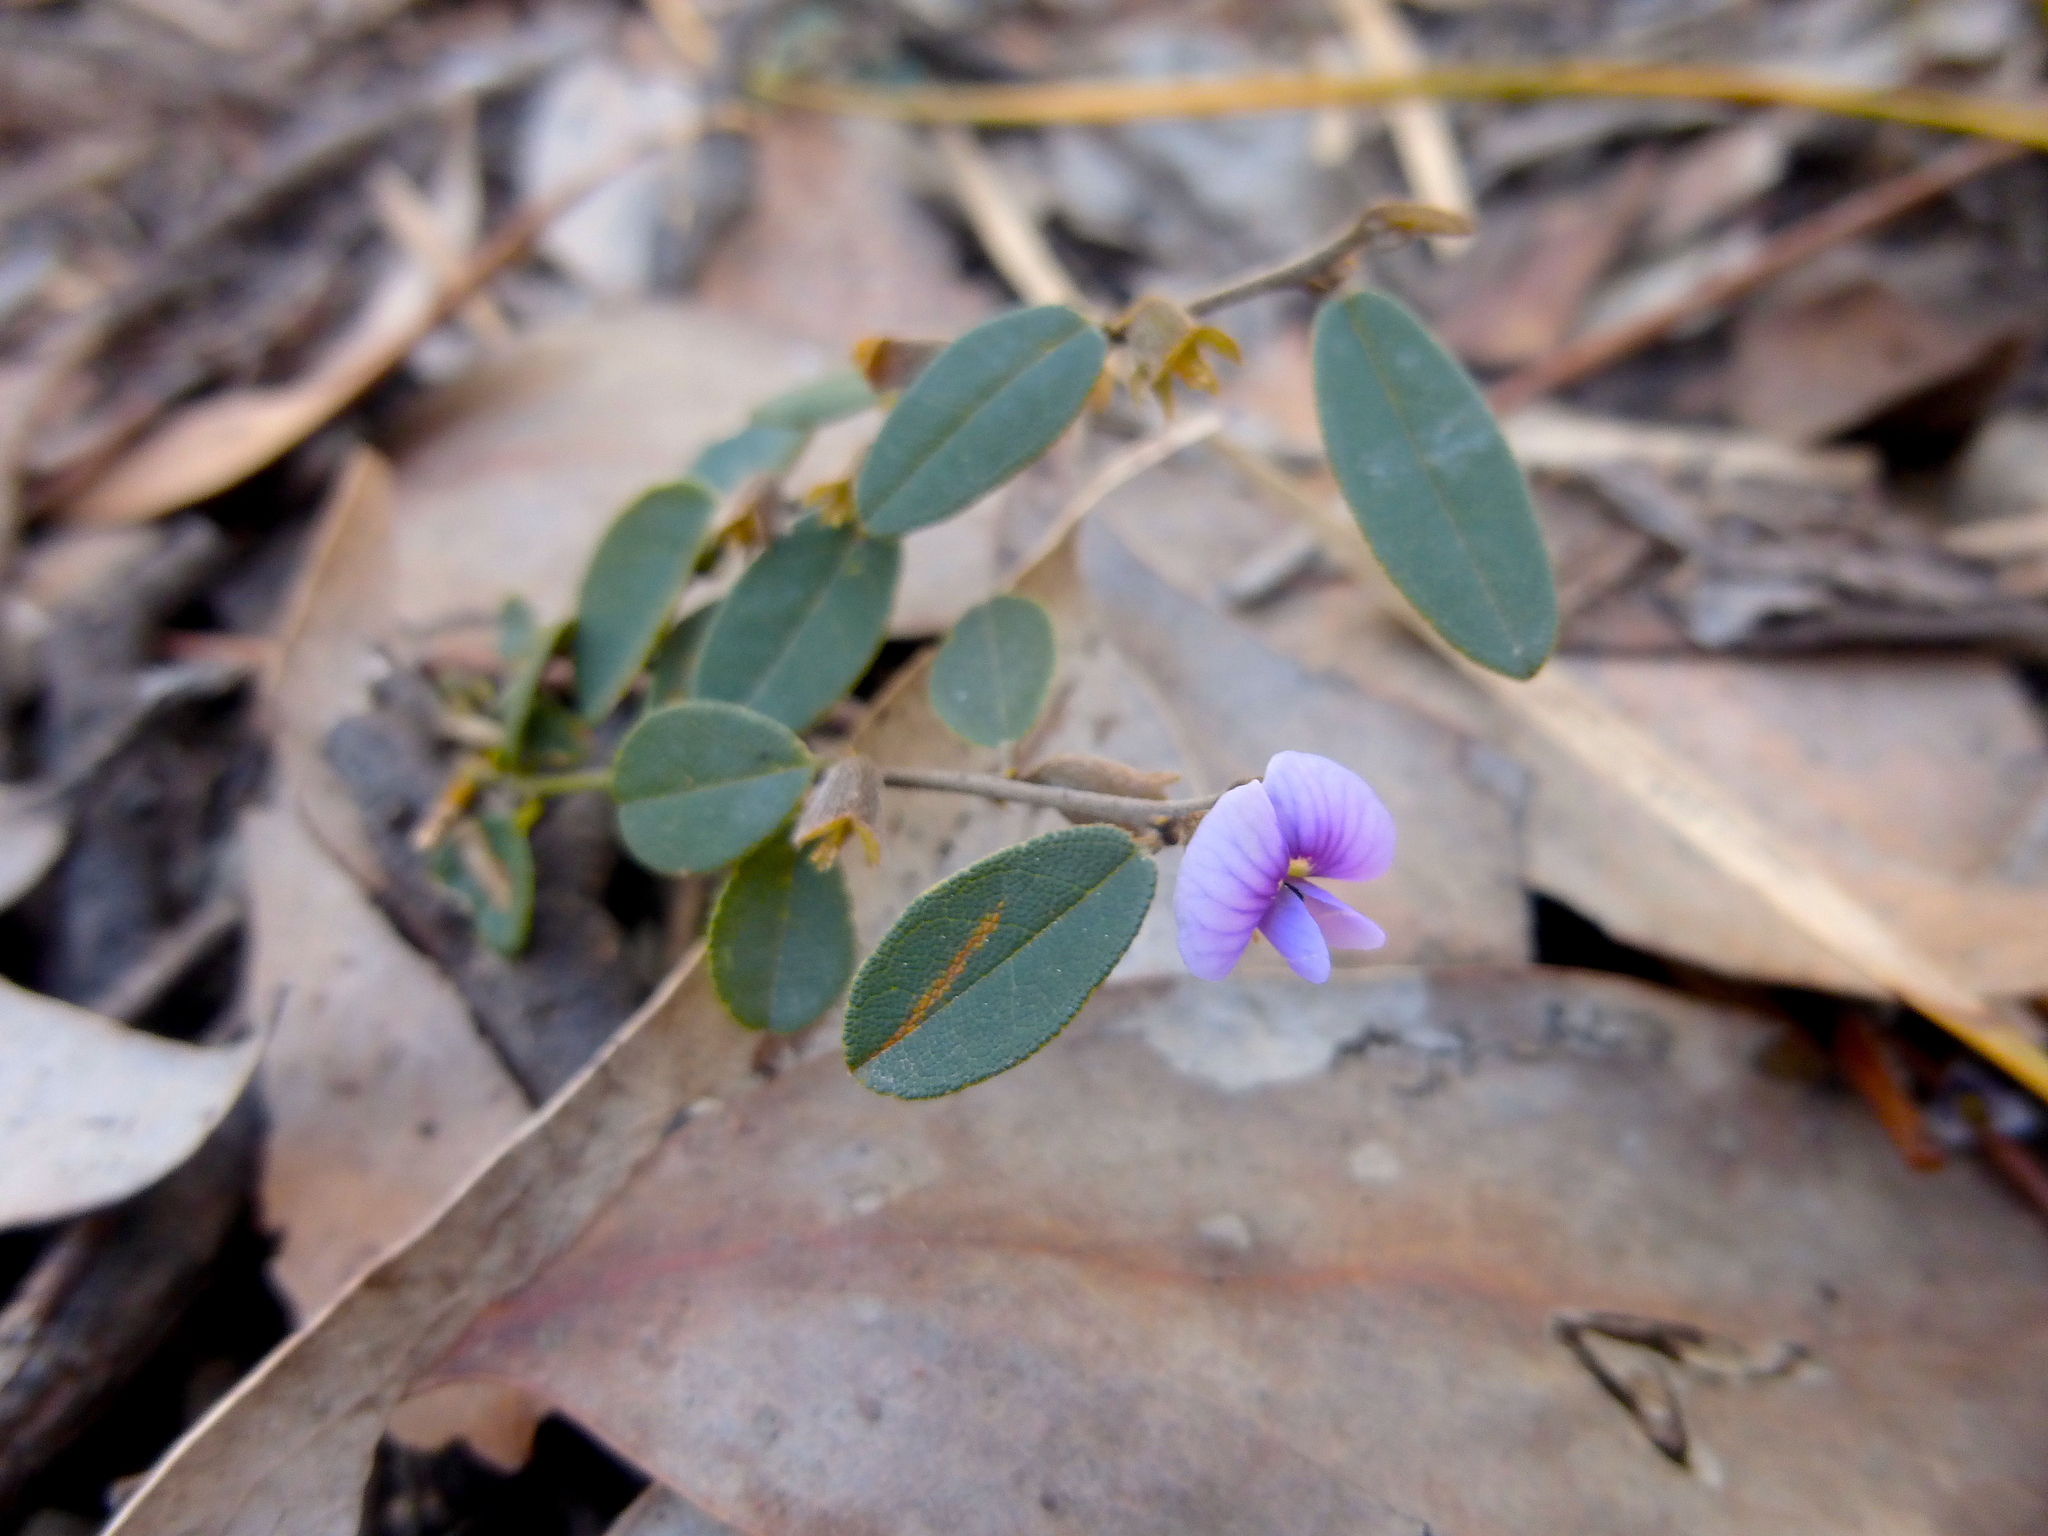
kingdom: Plantae
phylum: Tracheophyta
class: Magnoliopsida
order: Fabales
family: Fabaceae
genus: Hovea
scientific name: Hovea heterophylla
